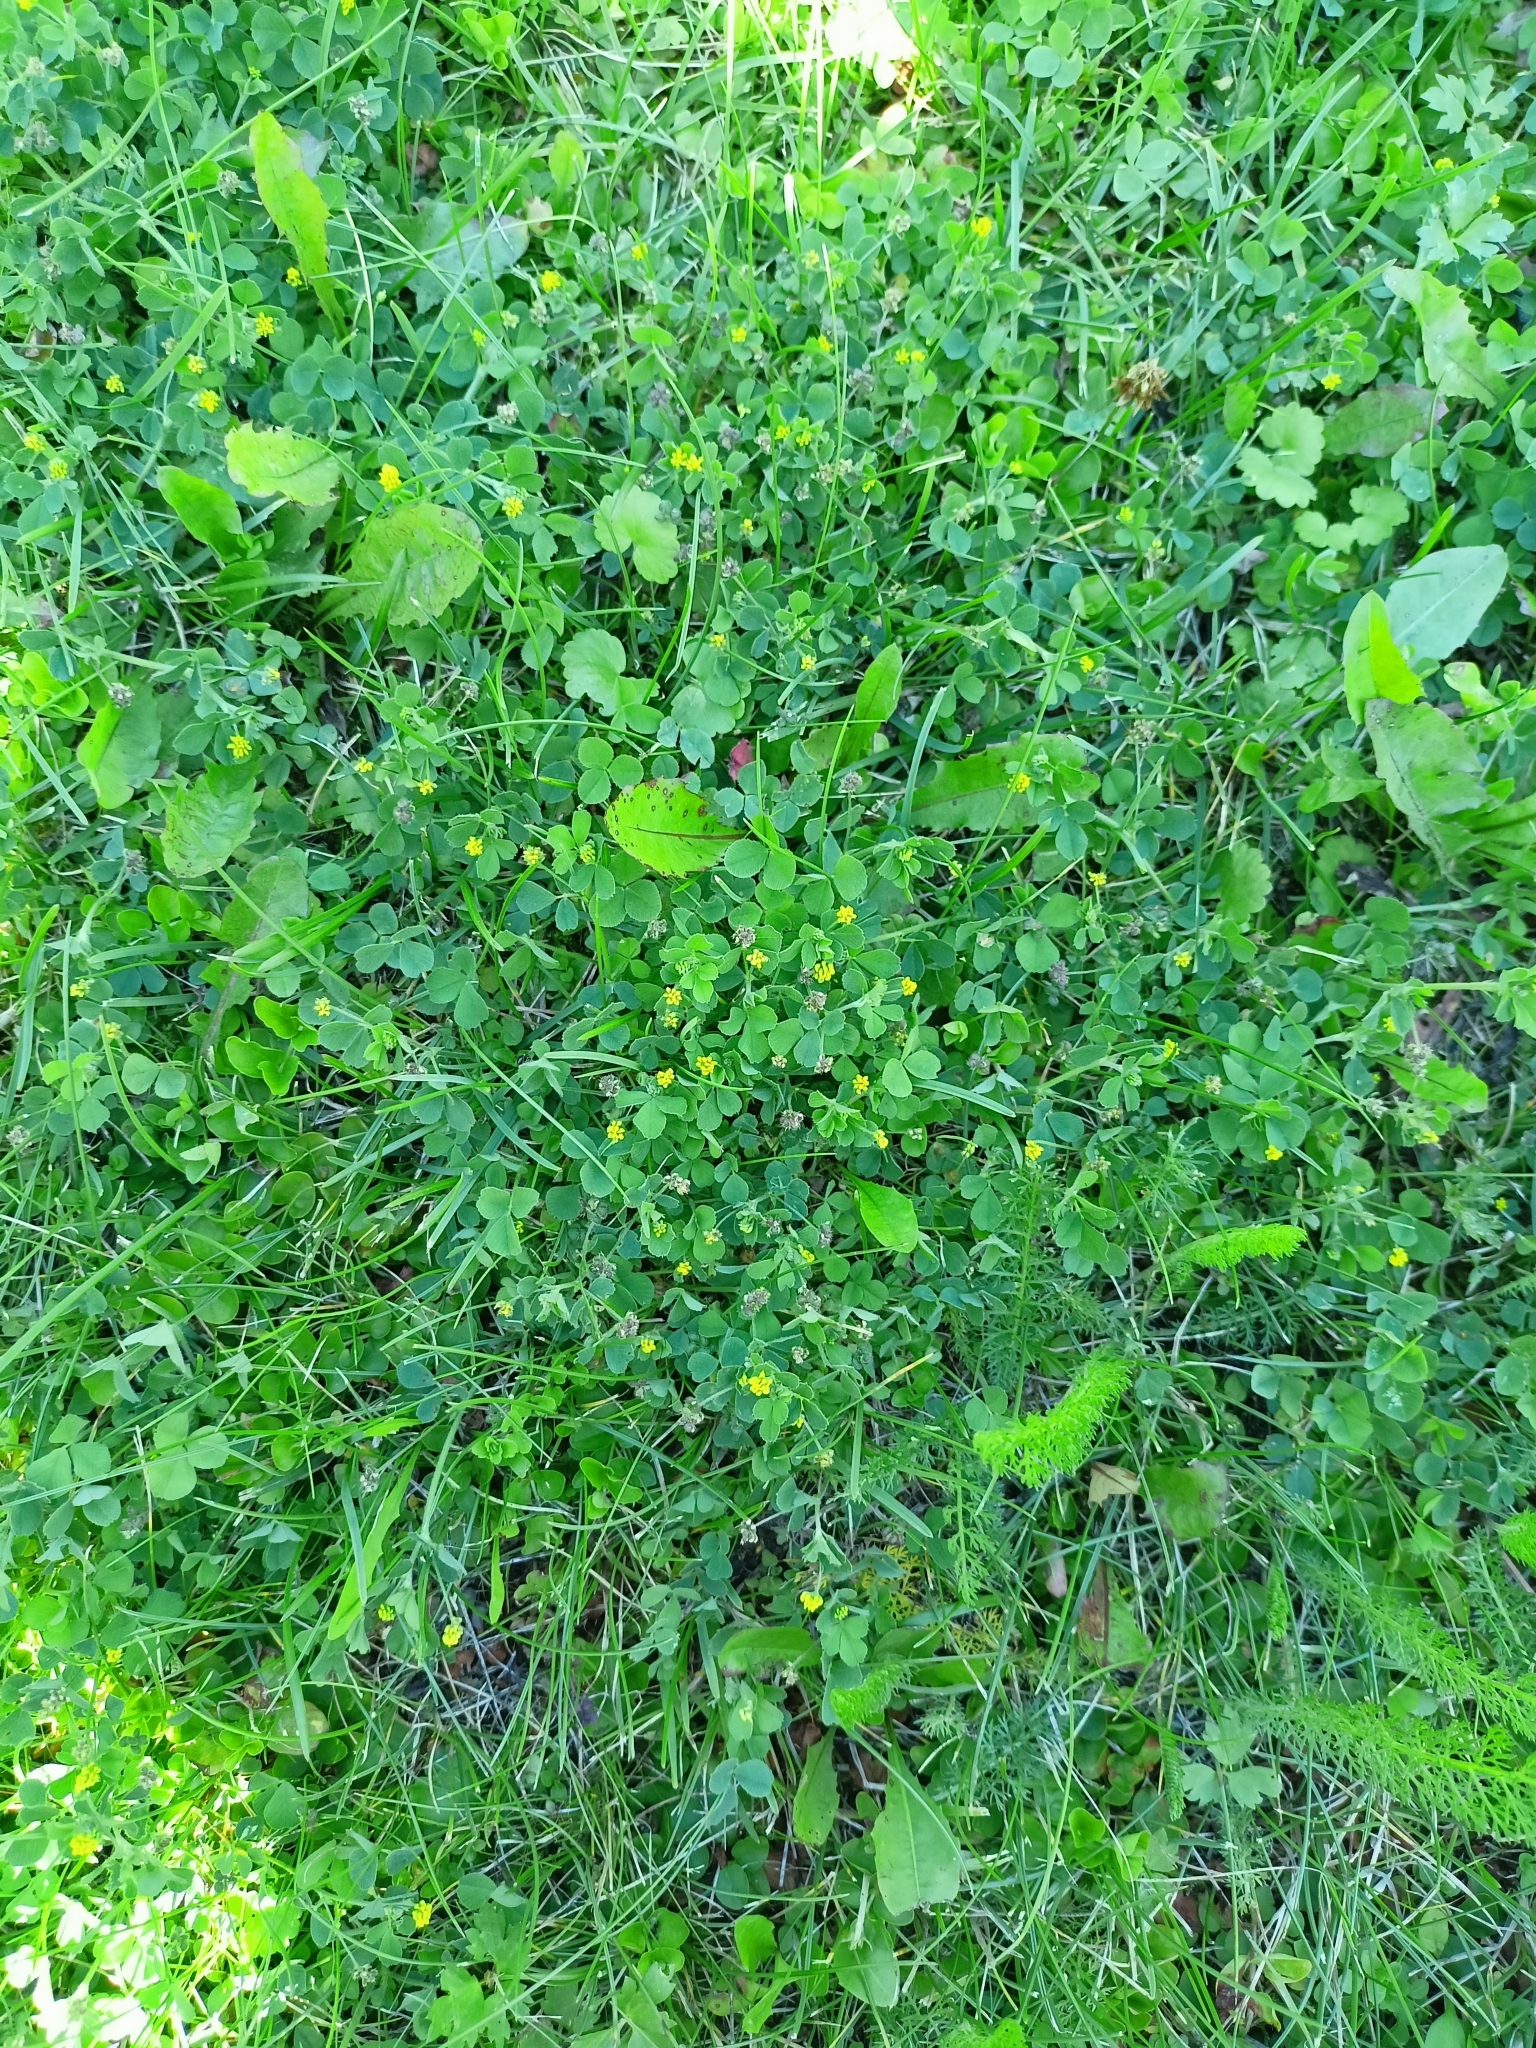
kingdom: Plantae
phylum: Tracheophyta
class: Magnoliopsida
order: Fabales
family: Fabaceae
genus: Medicago
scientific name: Medicago lupulina
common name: Black medick
